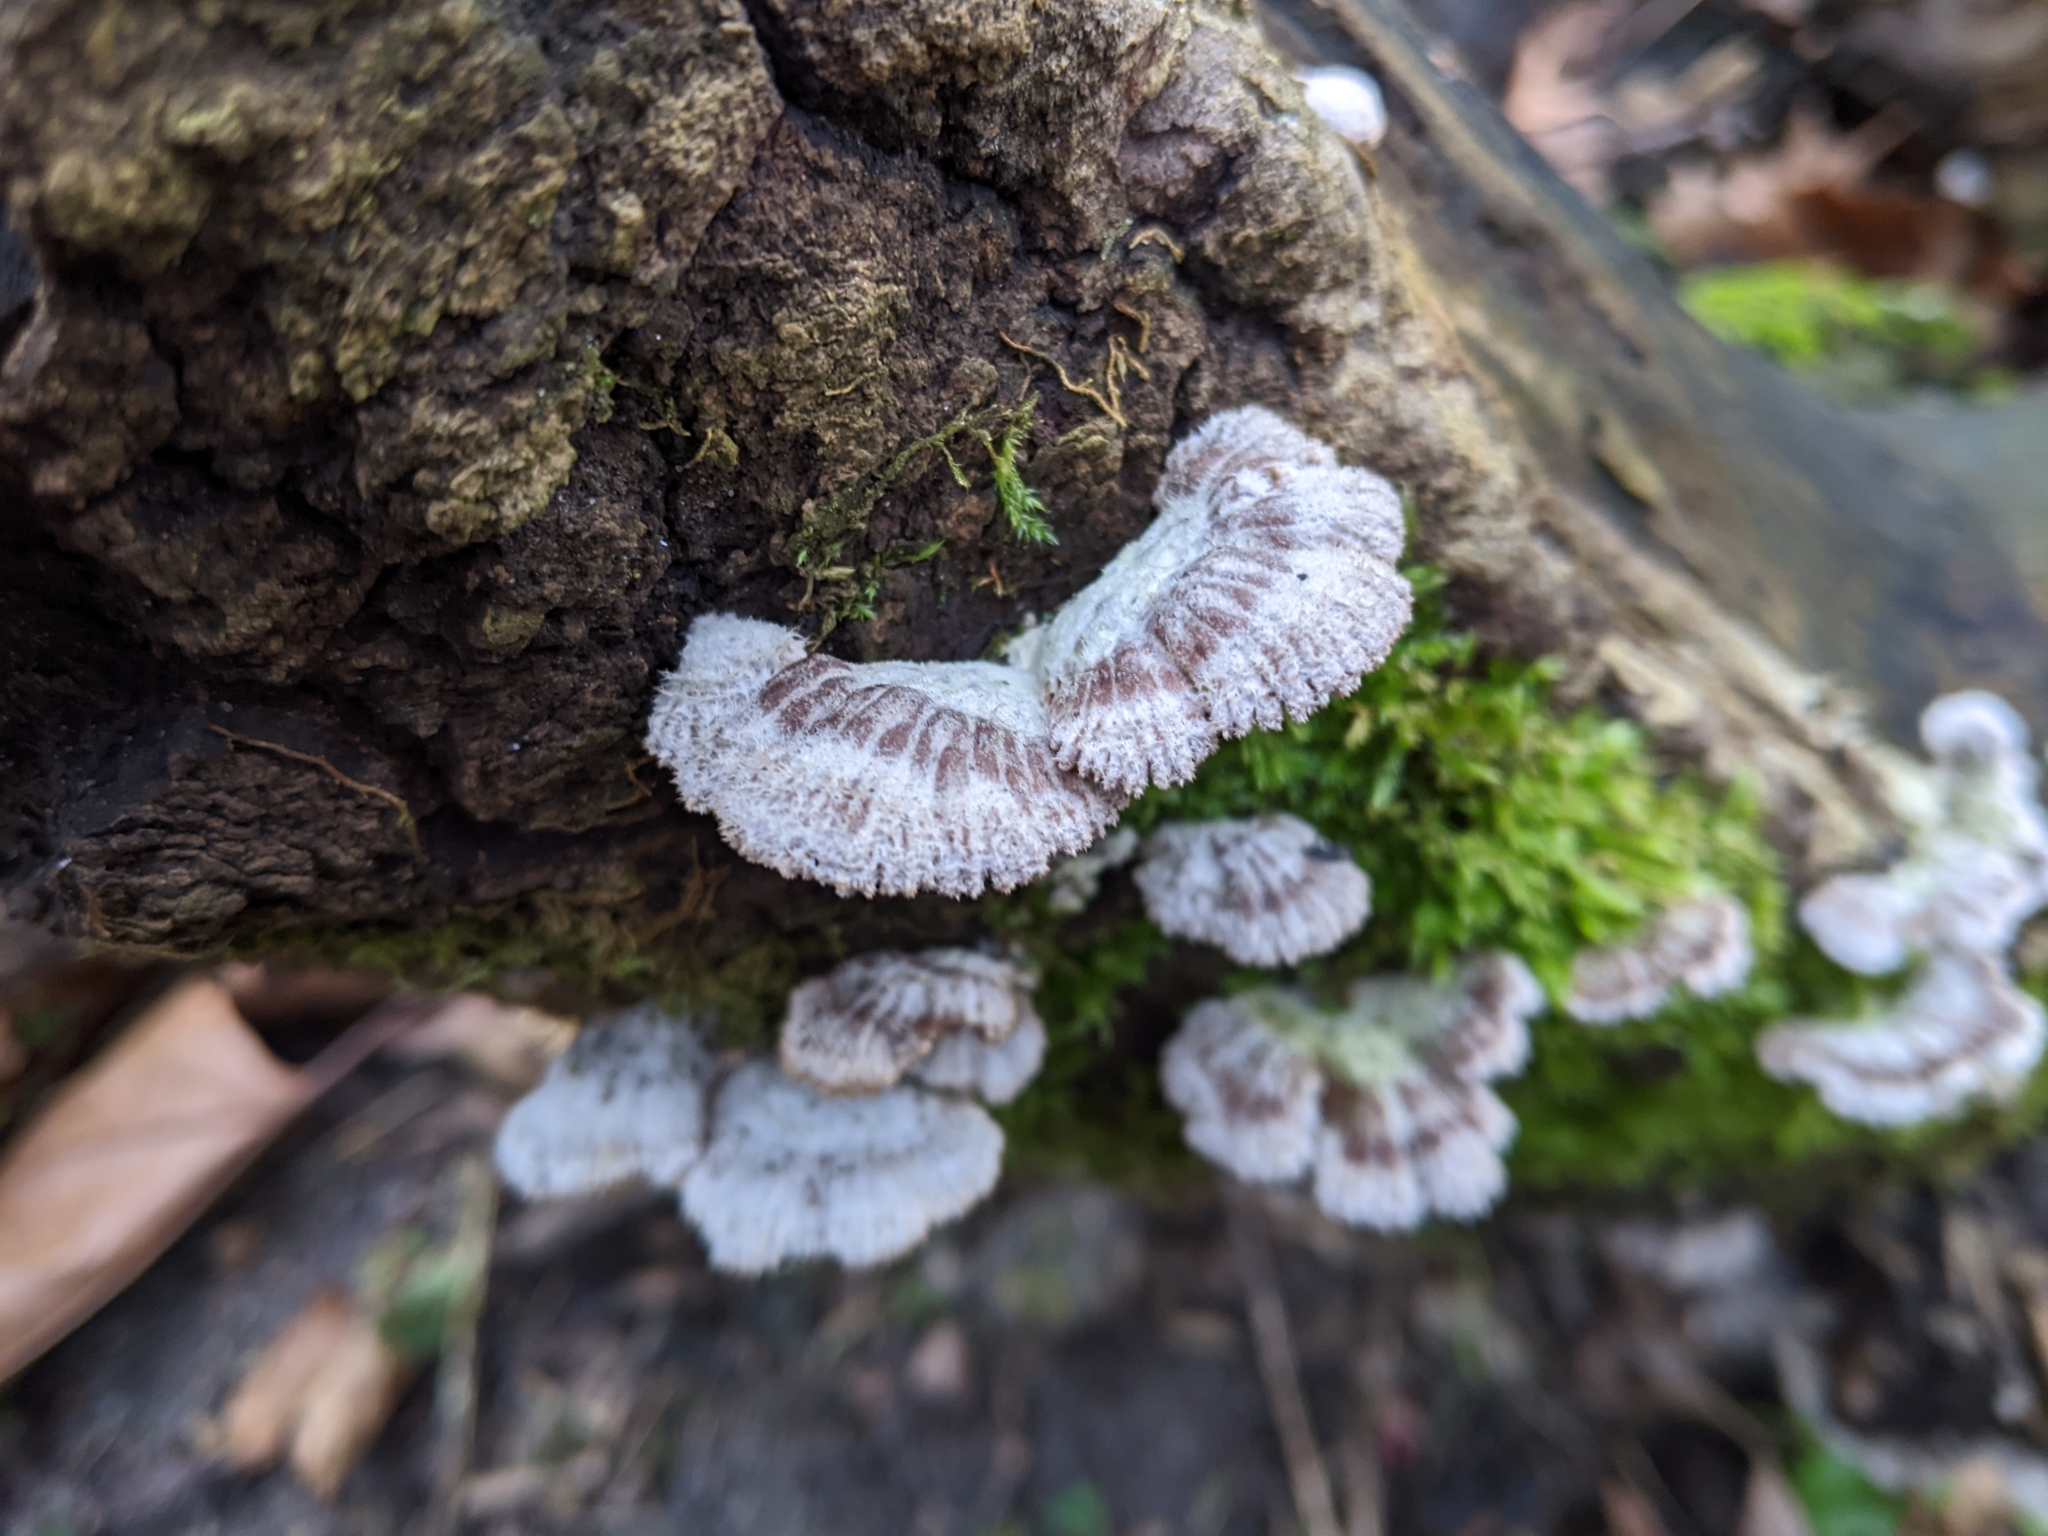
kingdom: Fungi
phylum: Basidiomycota
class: Agaricomycetes
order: Agaricales
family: Schizophyllaceae
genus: Schizophyllum
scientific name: Schizophyllum commune
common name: Common porecrust
